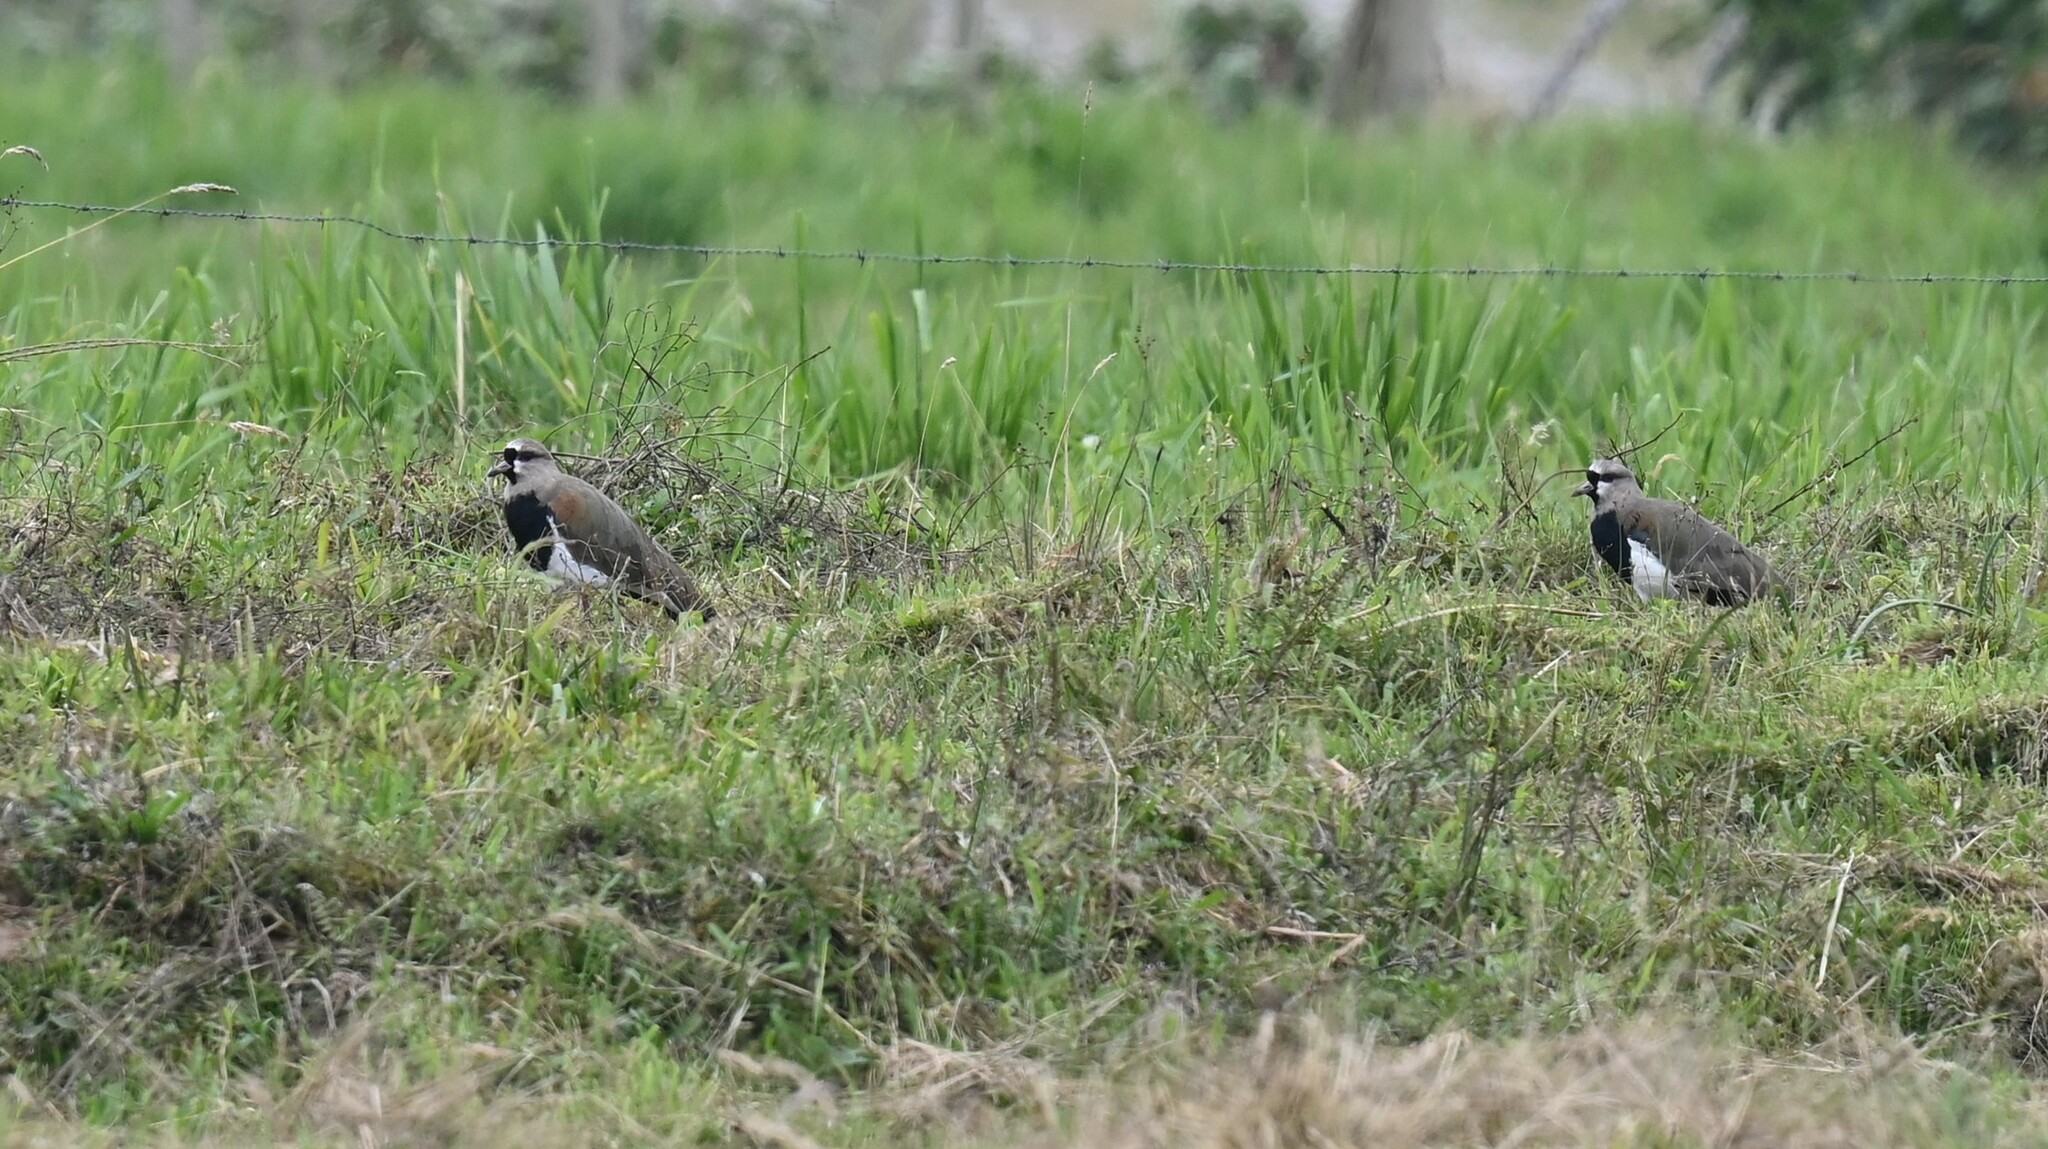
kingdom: Animalia
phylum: Chordata
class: Aves
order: Charadriiformes
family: Charadriidae
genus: Vanellus
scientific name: Vanellus chilensis
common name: Southern lapwing
